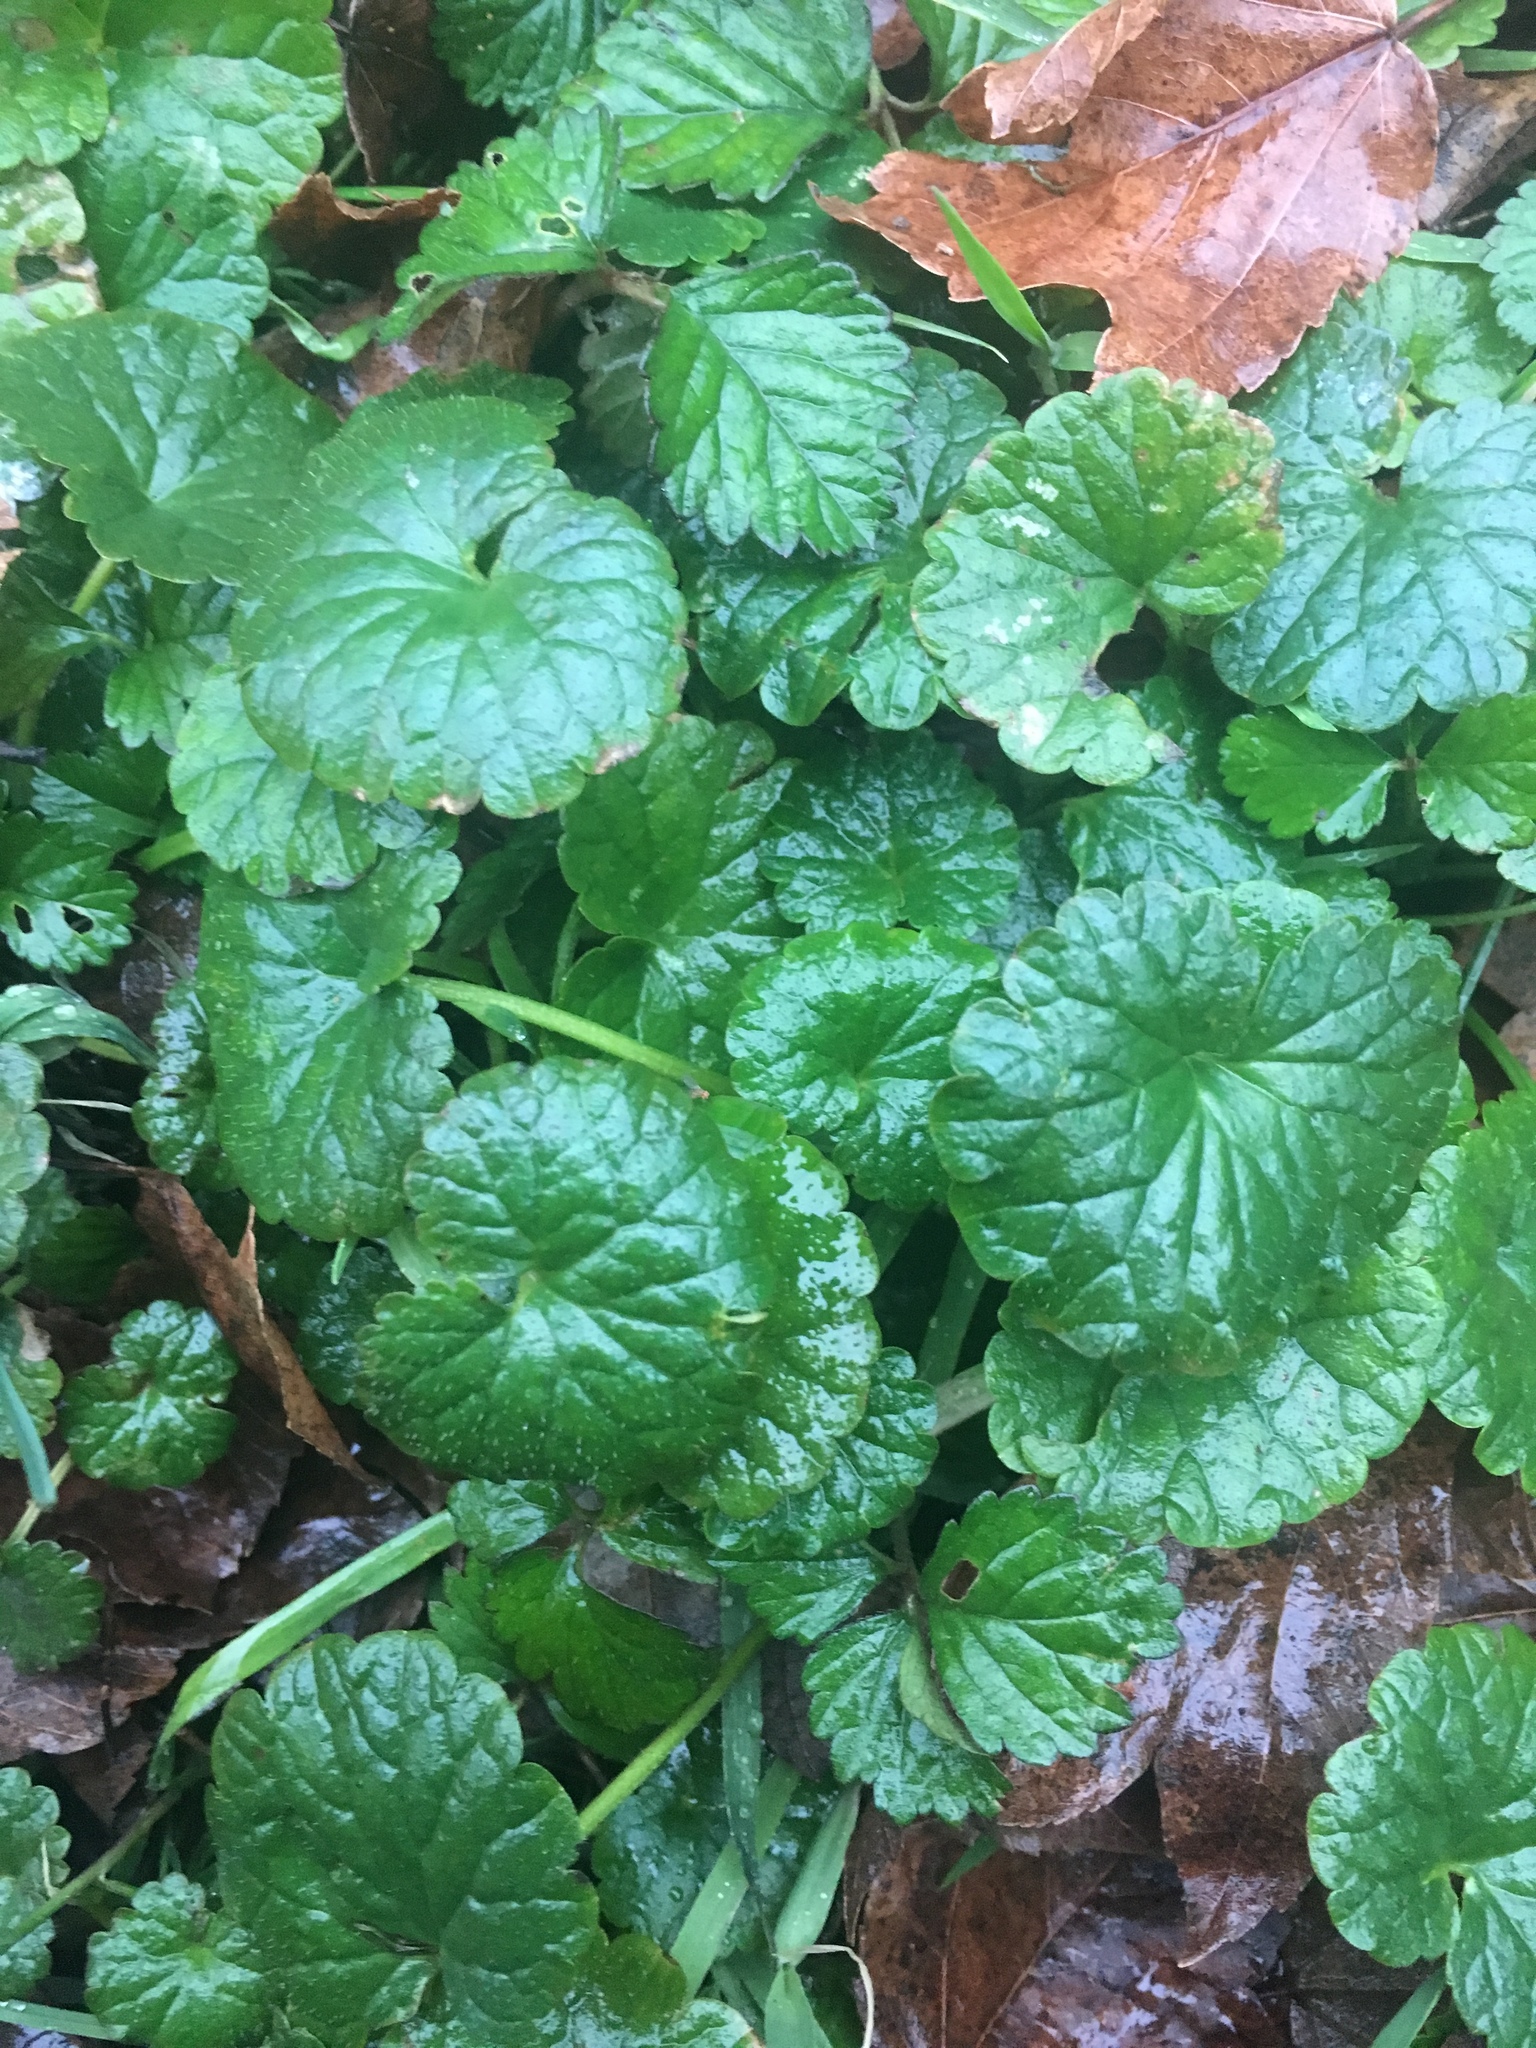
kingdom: Plantae
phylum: Tracheophyta
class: Magnoliopsida
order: Lamiales
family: Lamiaceae
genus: Glechoma
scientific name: Glechoma hederacea
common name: Ground ivy
